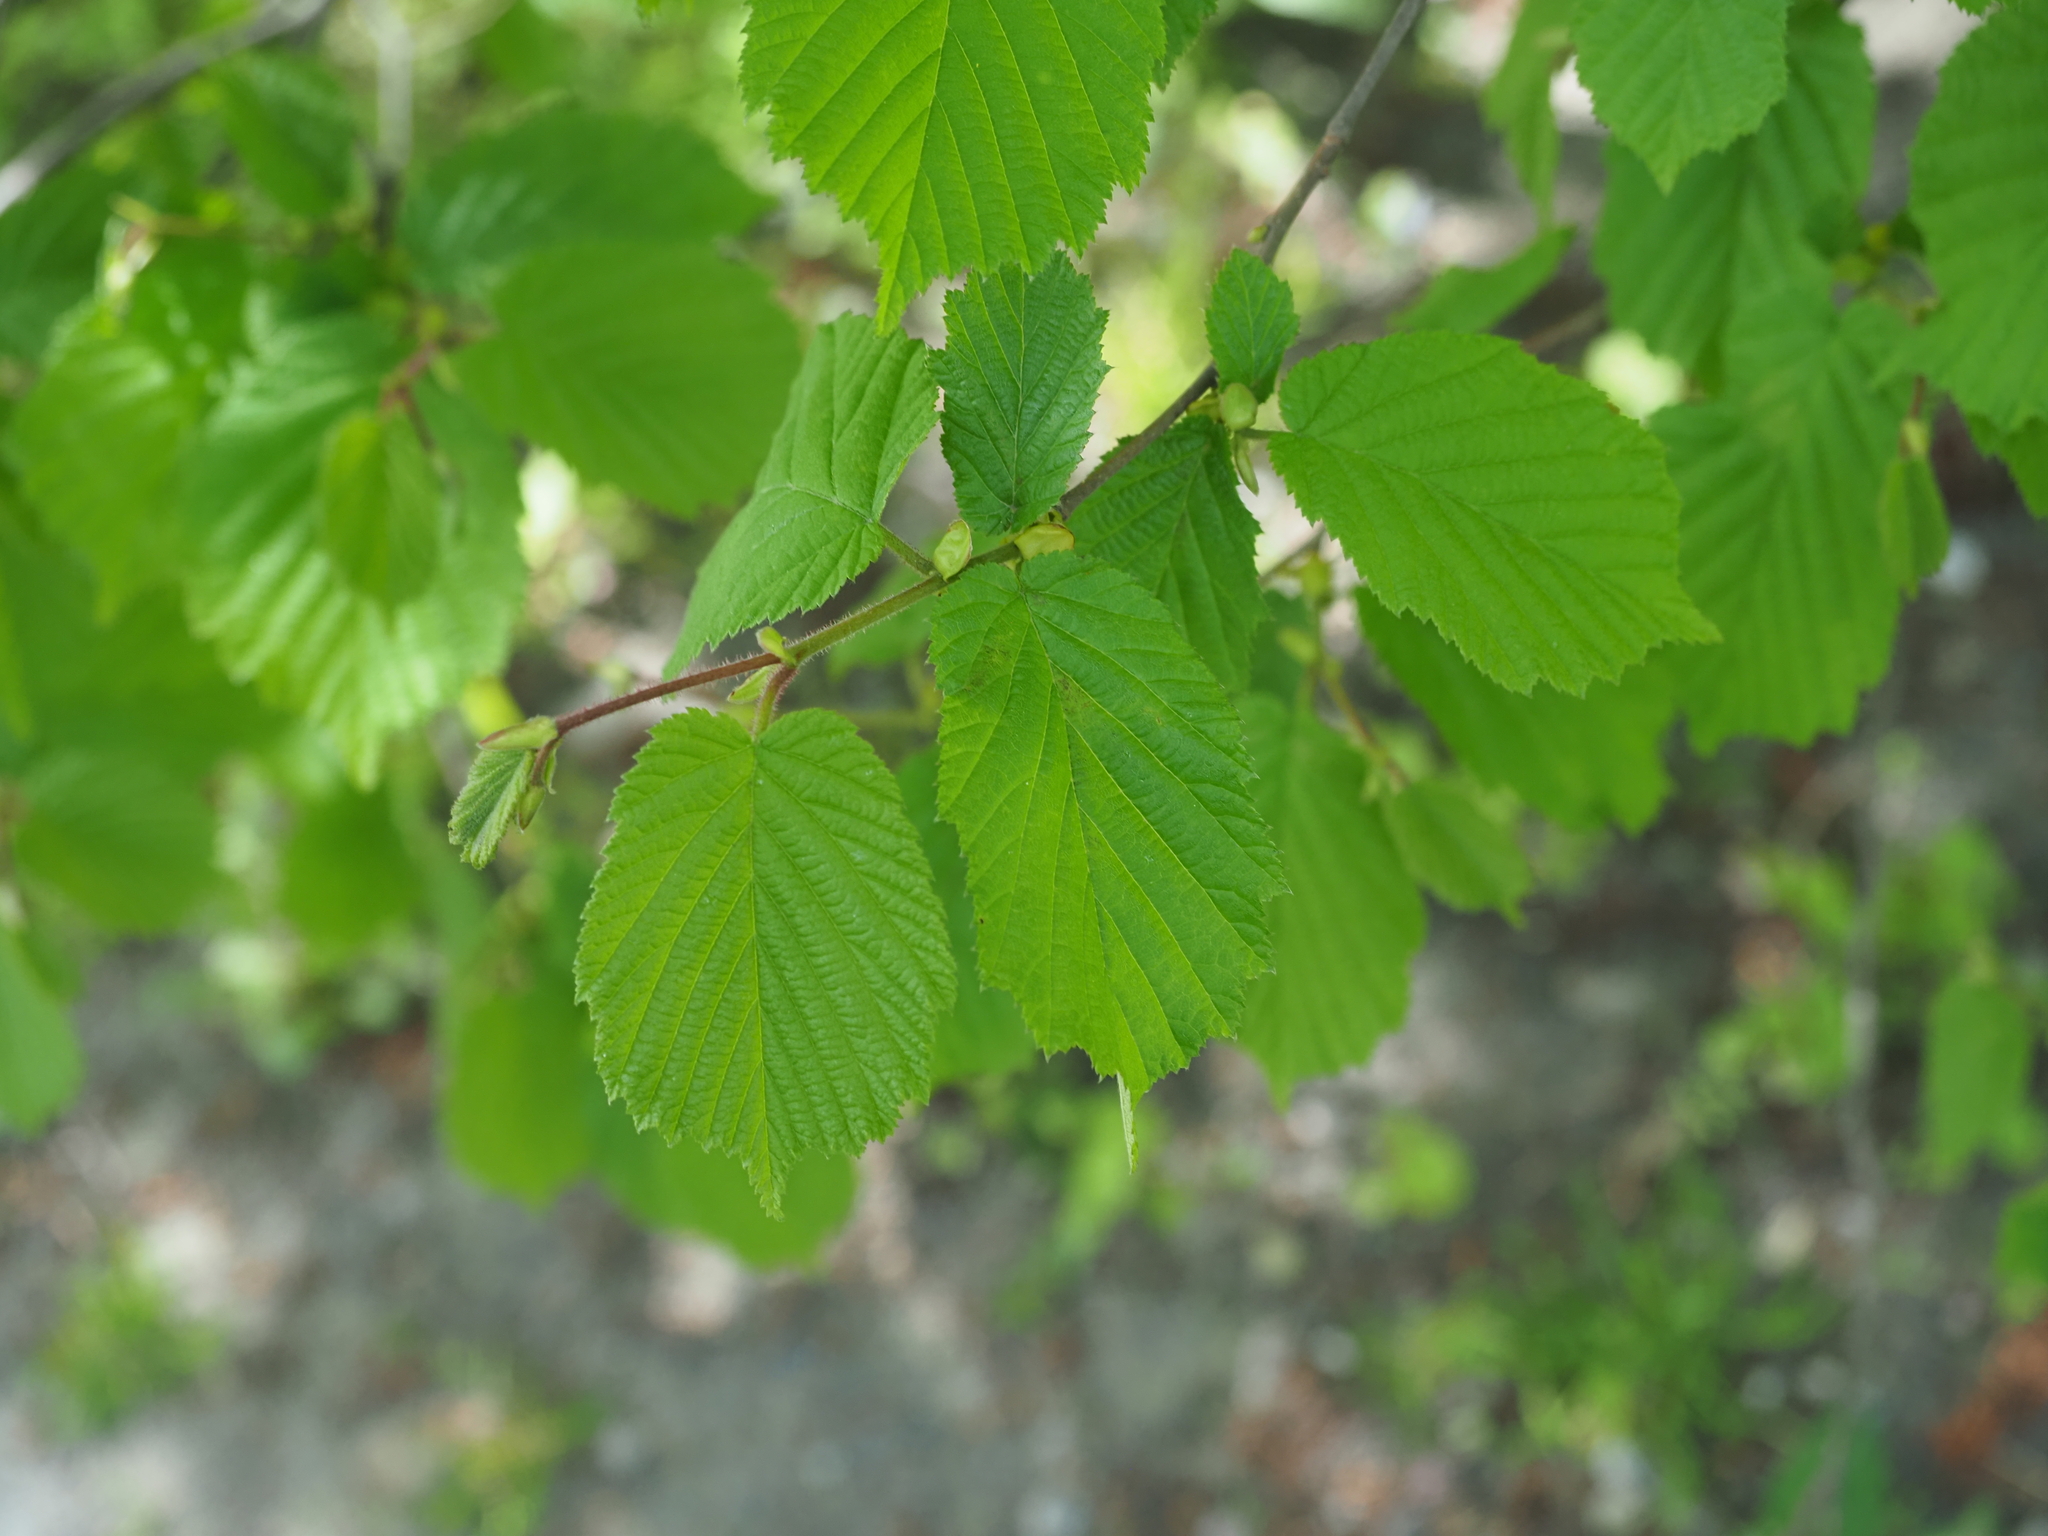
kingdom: Plantae
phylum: Tracheophyta
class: Magnoliopsida
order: Fagales
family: Betulaceae
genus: Corylus
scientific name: Corylus avellana
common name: European hazel
